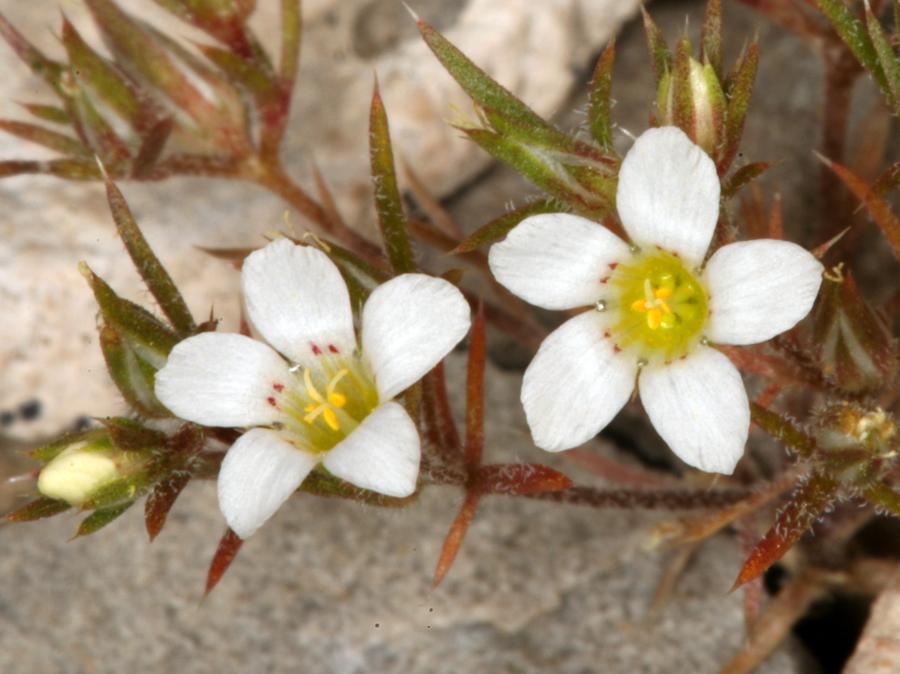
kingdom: Plantae
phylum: Tracheophyta
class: Magnoliopsida
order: Ericales
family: Polemoniaceae
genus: Linanthus
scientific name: Linanthus demissus
